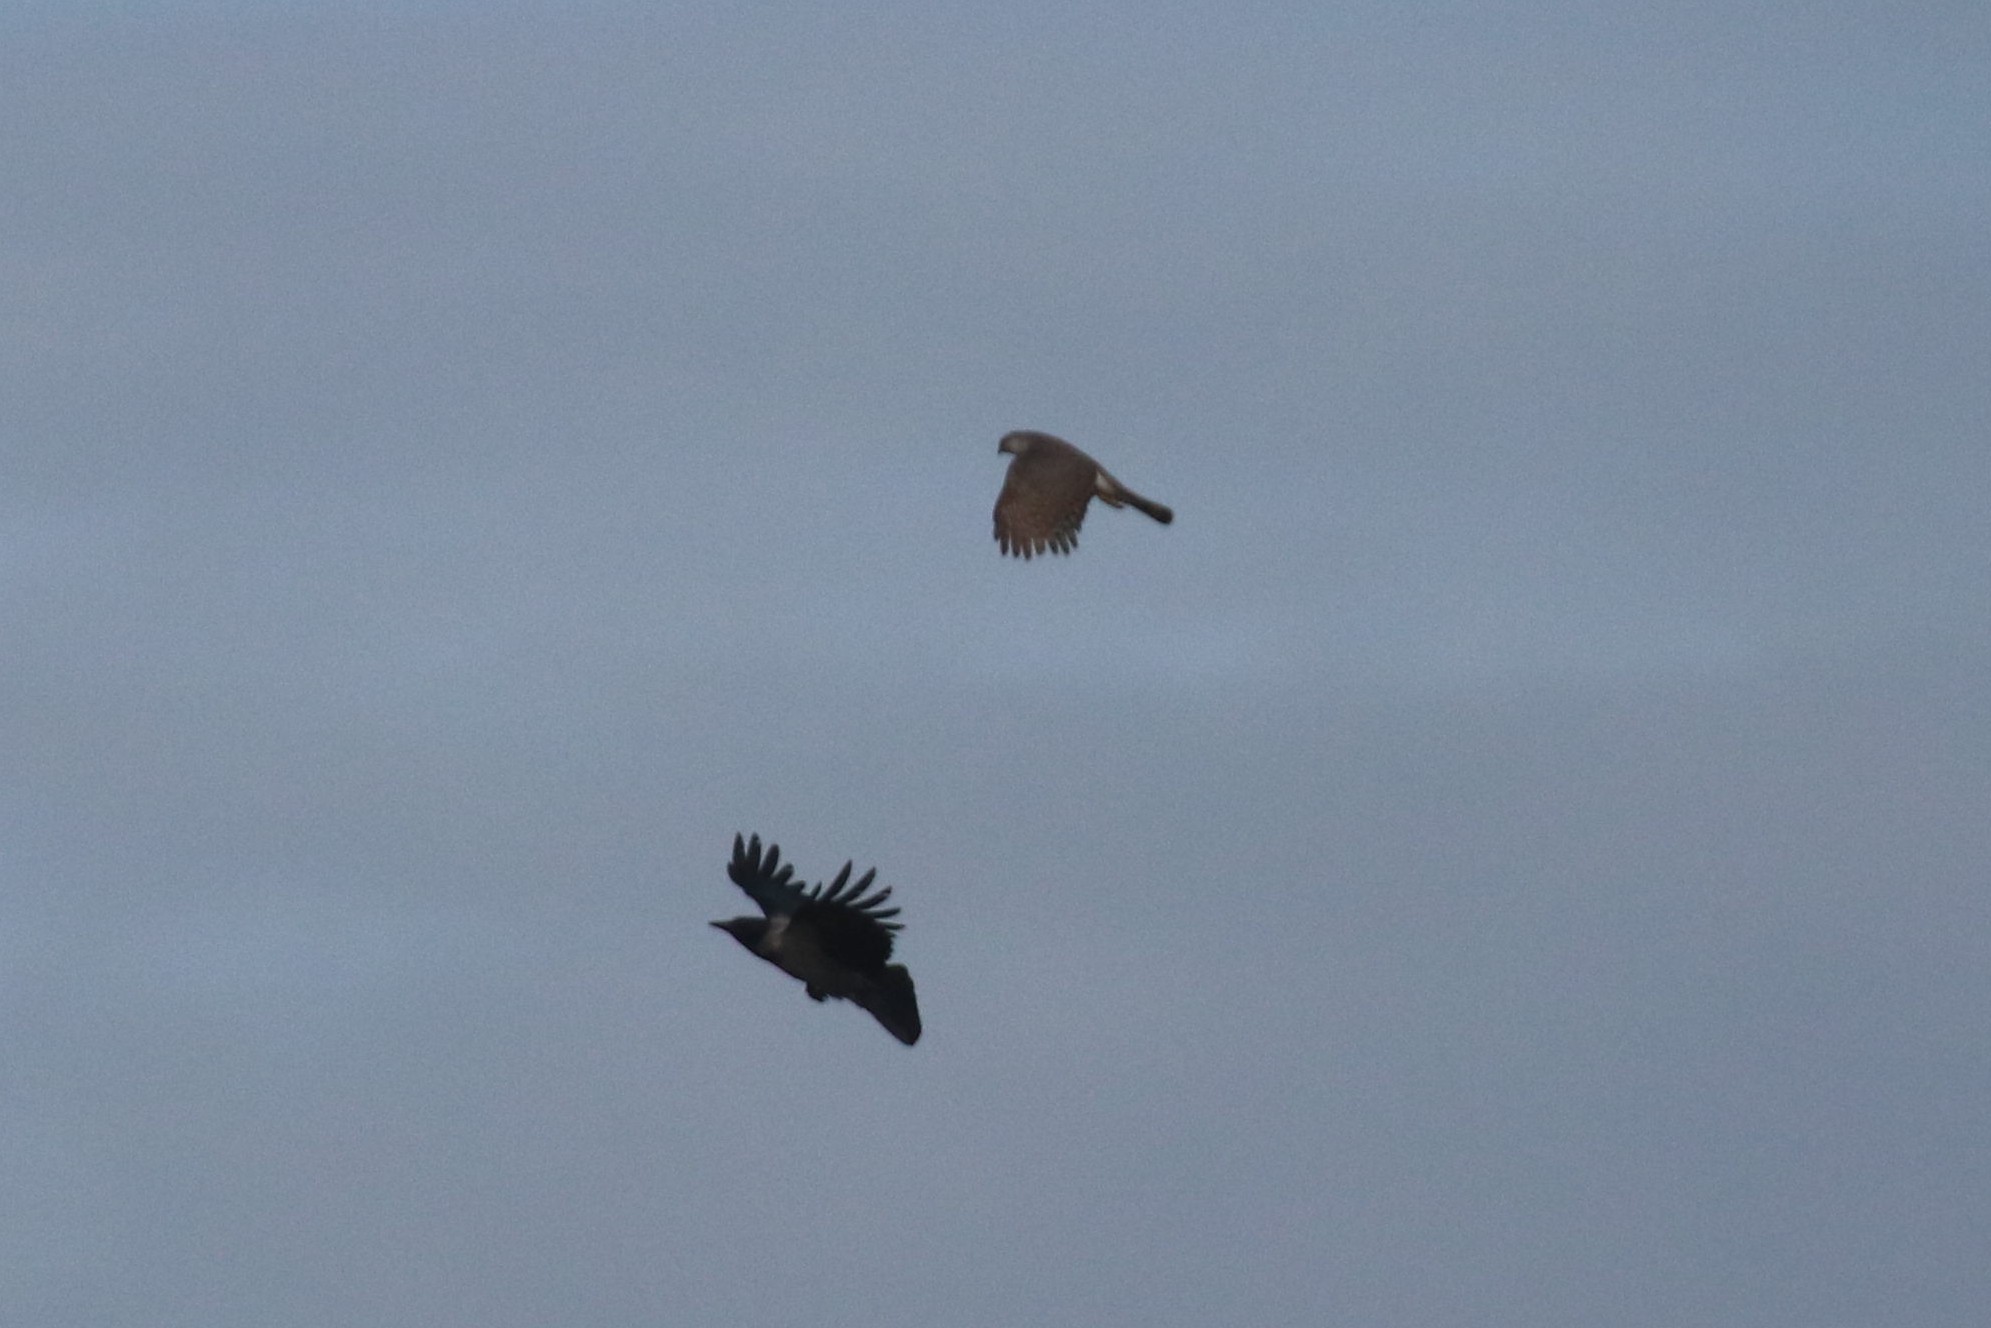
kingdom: Animalia
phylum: Chordata
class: Aves
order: Accipitriformes
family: Accipitridae
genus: Accipiter
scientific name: Accipiter nisus
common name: Eurasian sparrowhawk
